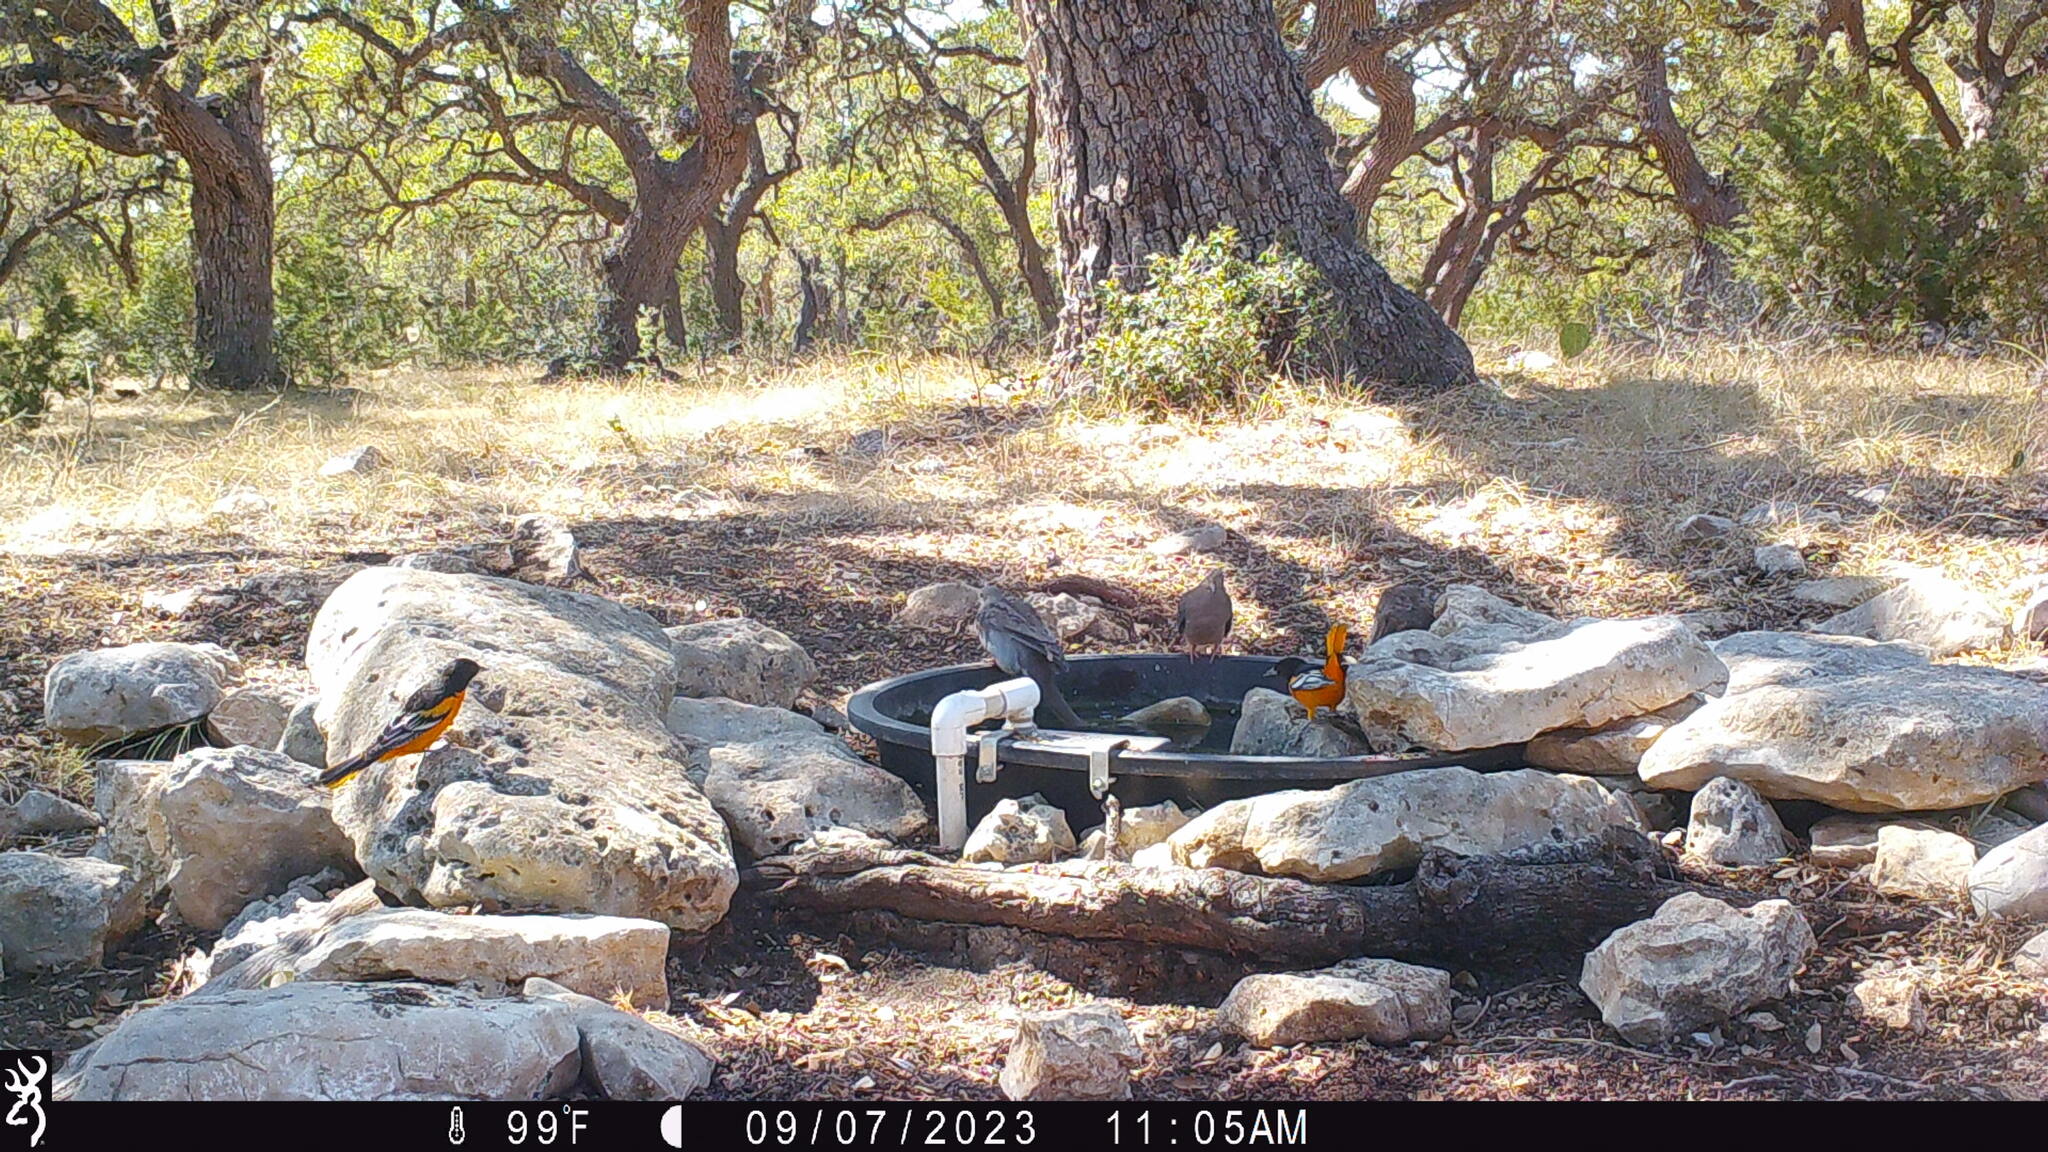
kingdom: Animalia
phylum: Chordata
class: Aves
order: Passeriformes
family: Icteridae
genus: Icterus
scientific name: Icterus galbula
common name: Baltimore oriole
